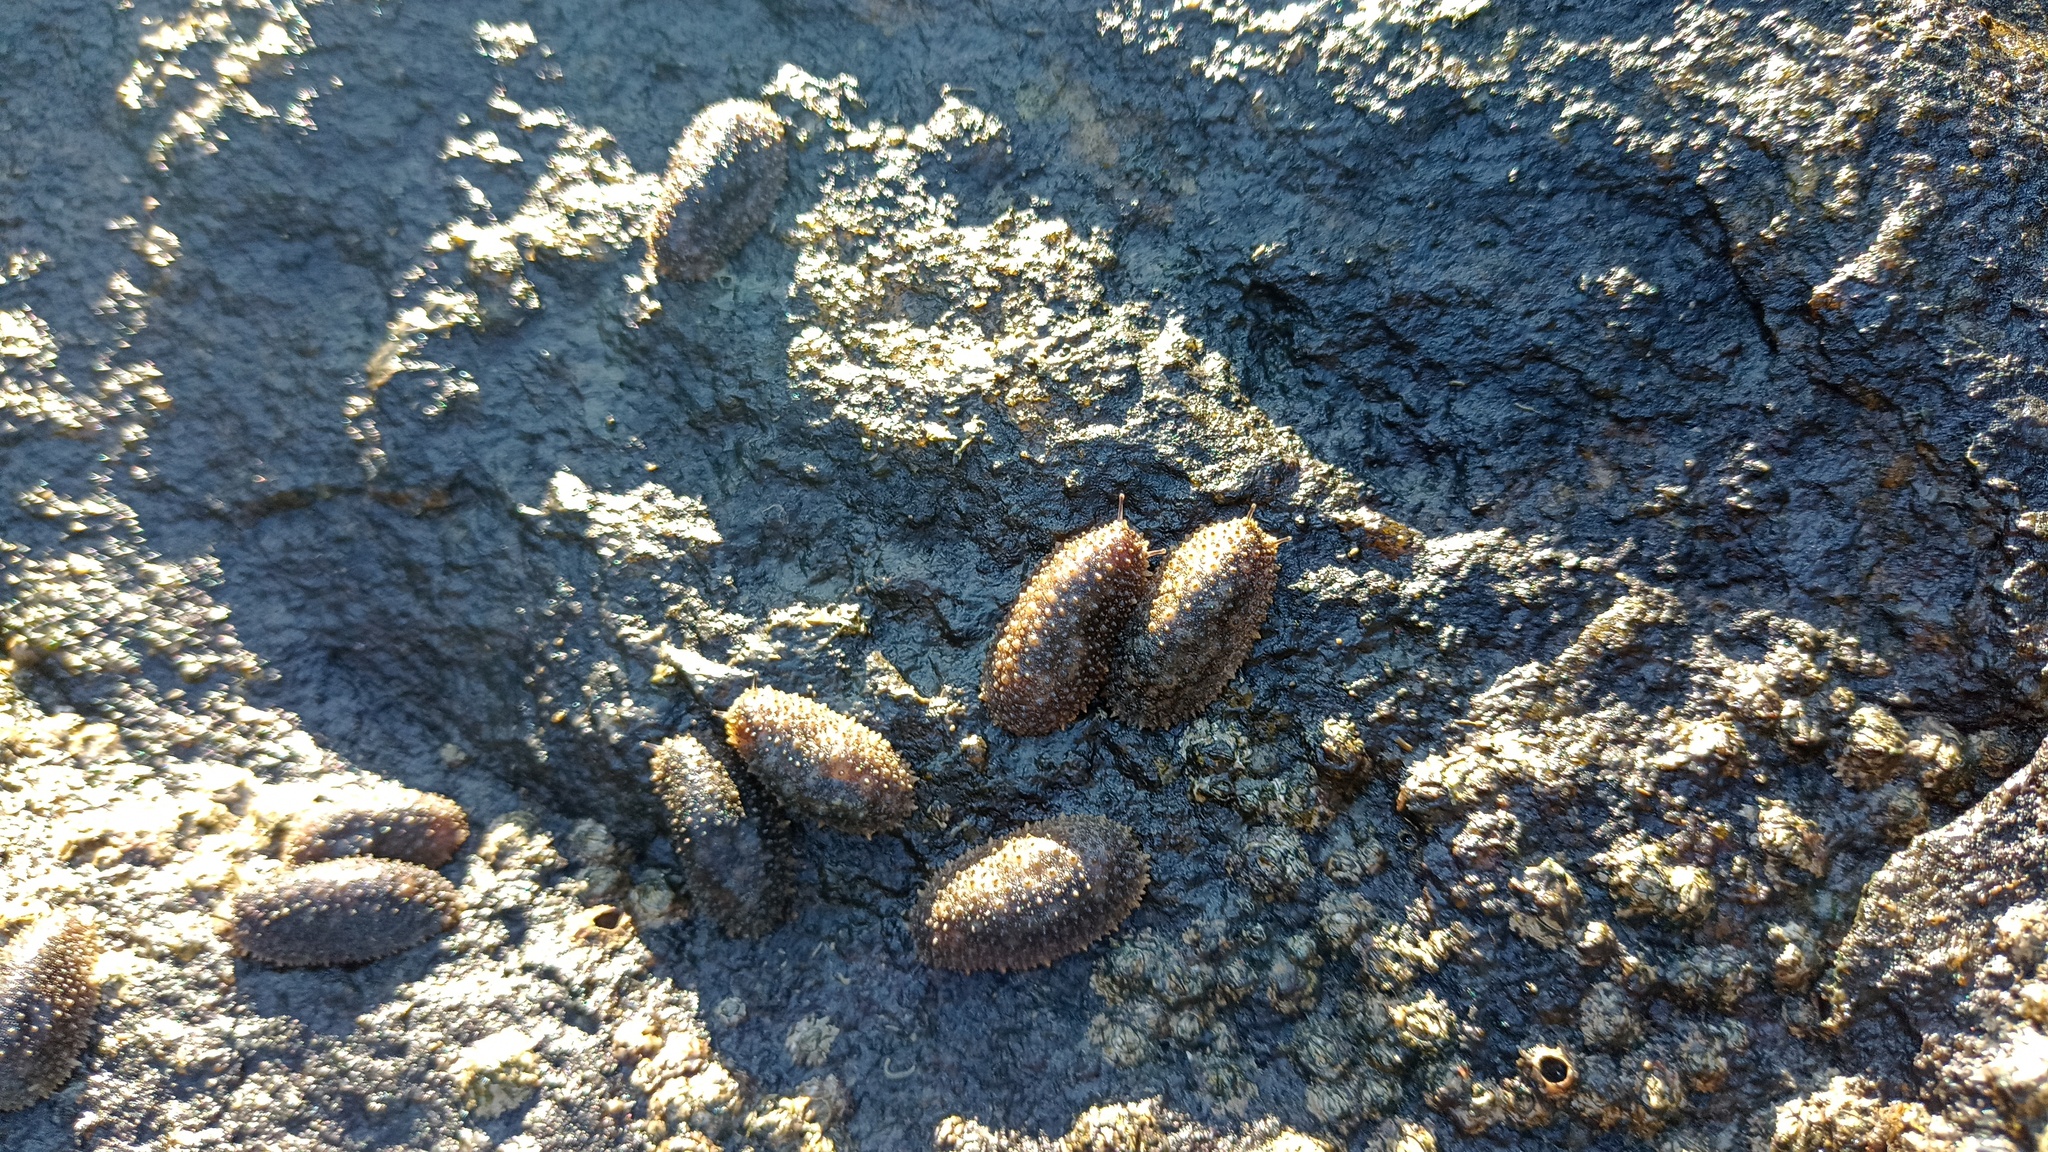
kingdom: Animalia
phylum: Mollusca
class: Gastropoda
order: Systellommatophora
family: Onchidiidae
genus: Onchidella
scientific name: Onchidella incisa
